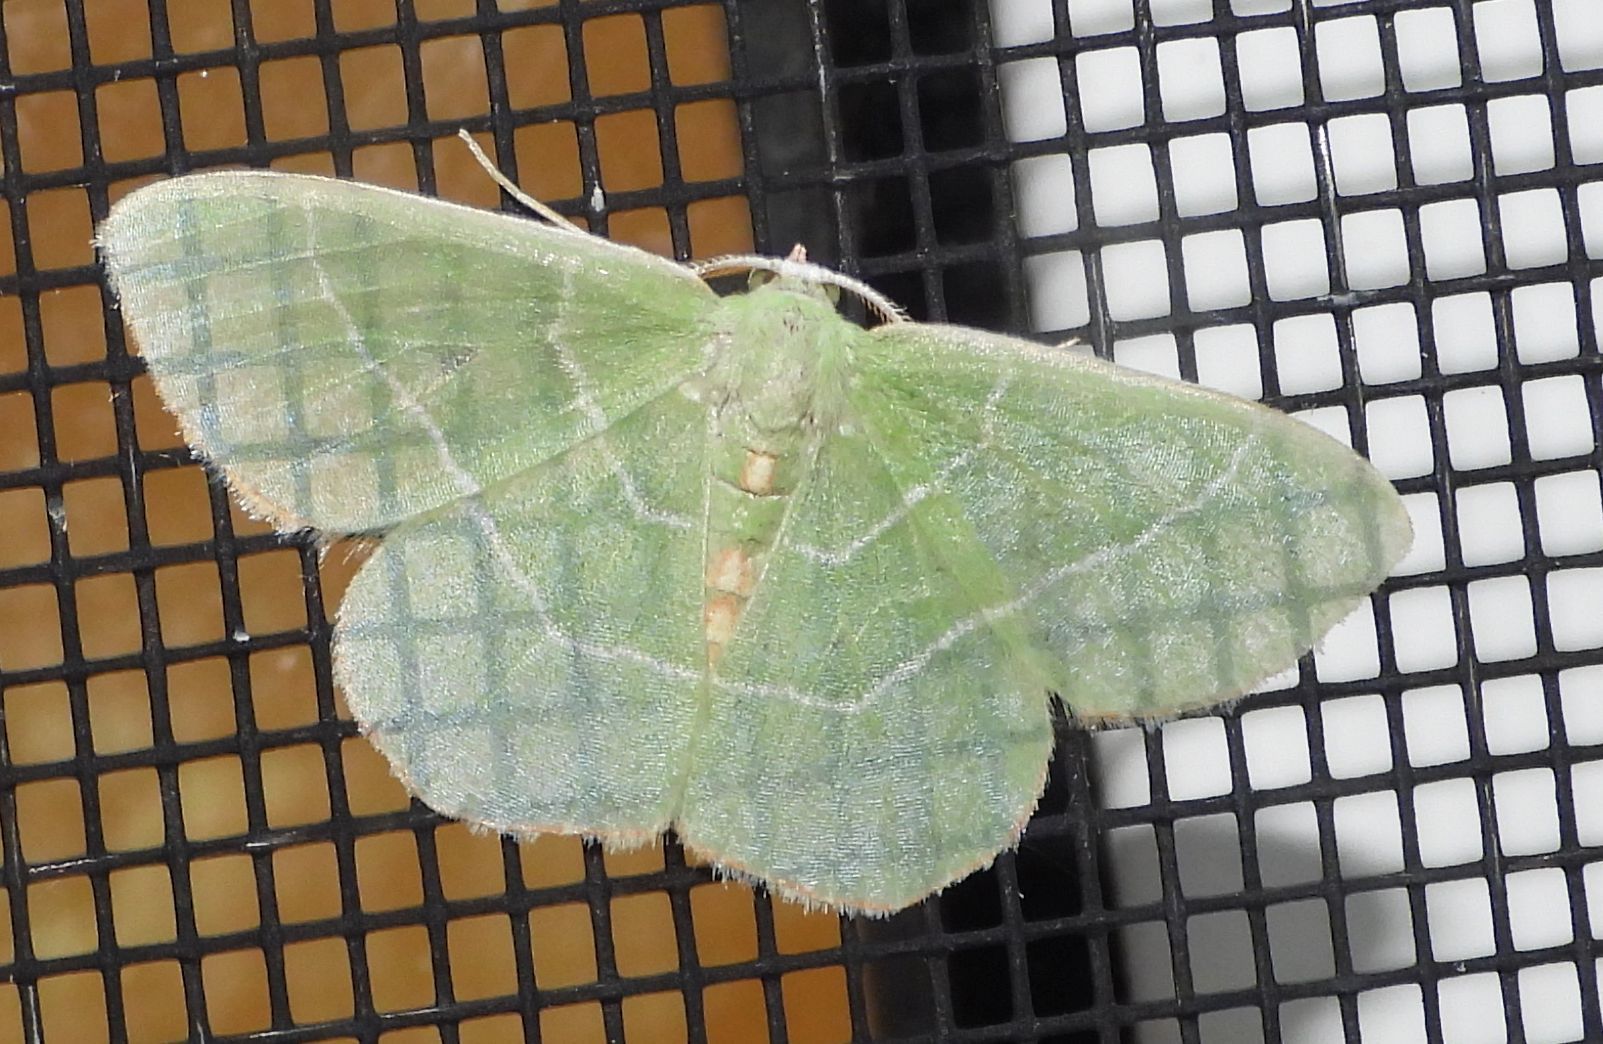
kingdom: Animalia
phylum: Arthropoda
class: Insecta
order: Lepidoptera
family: Geometridae
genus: Nemoria
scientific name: Nemoria bistriaria
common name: Red-fringed emerald
